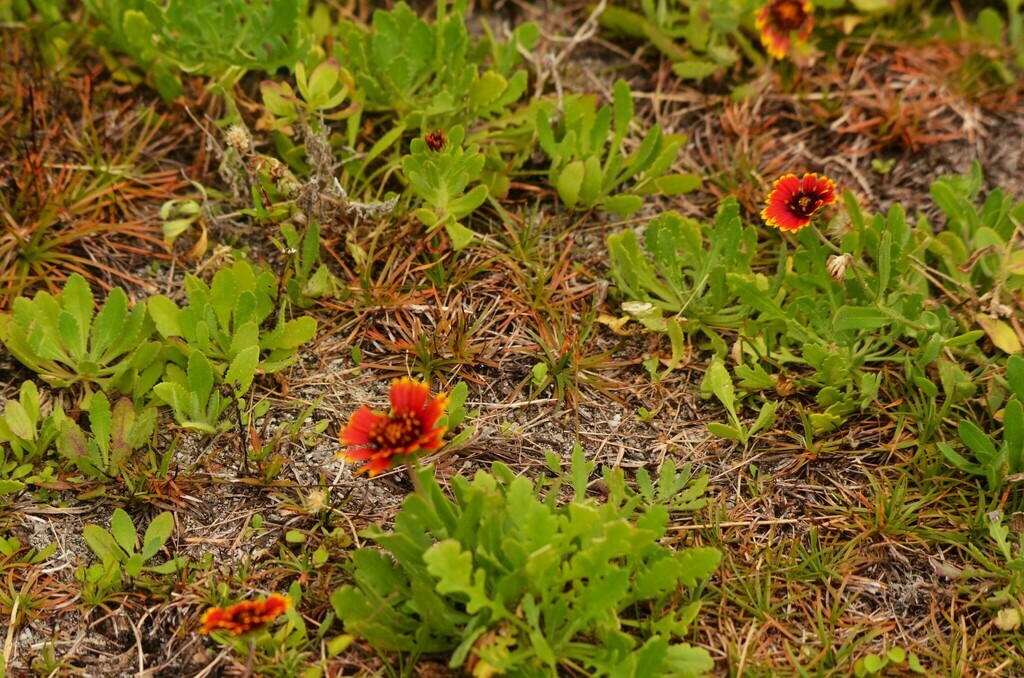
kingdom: Plantae
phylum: Tracheophyta
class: Magnoliopsida
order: Asterales
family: Asteraceae
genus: Gaillardia
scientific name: Gaillardia pulchella
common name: Firewheel
